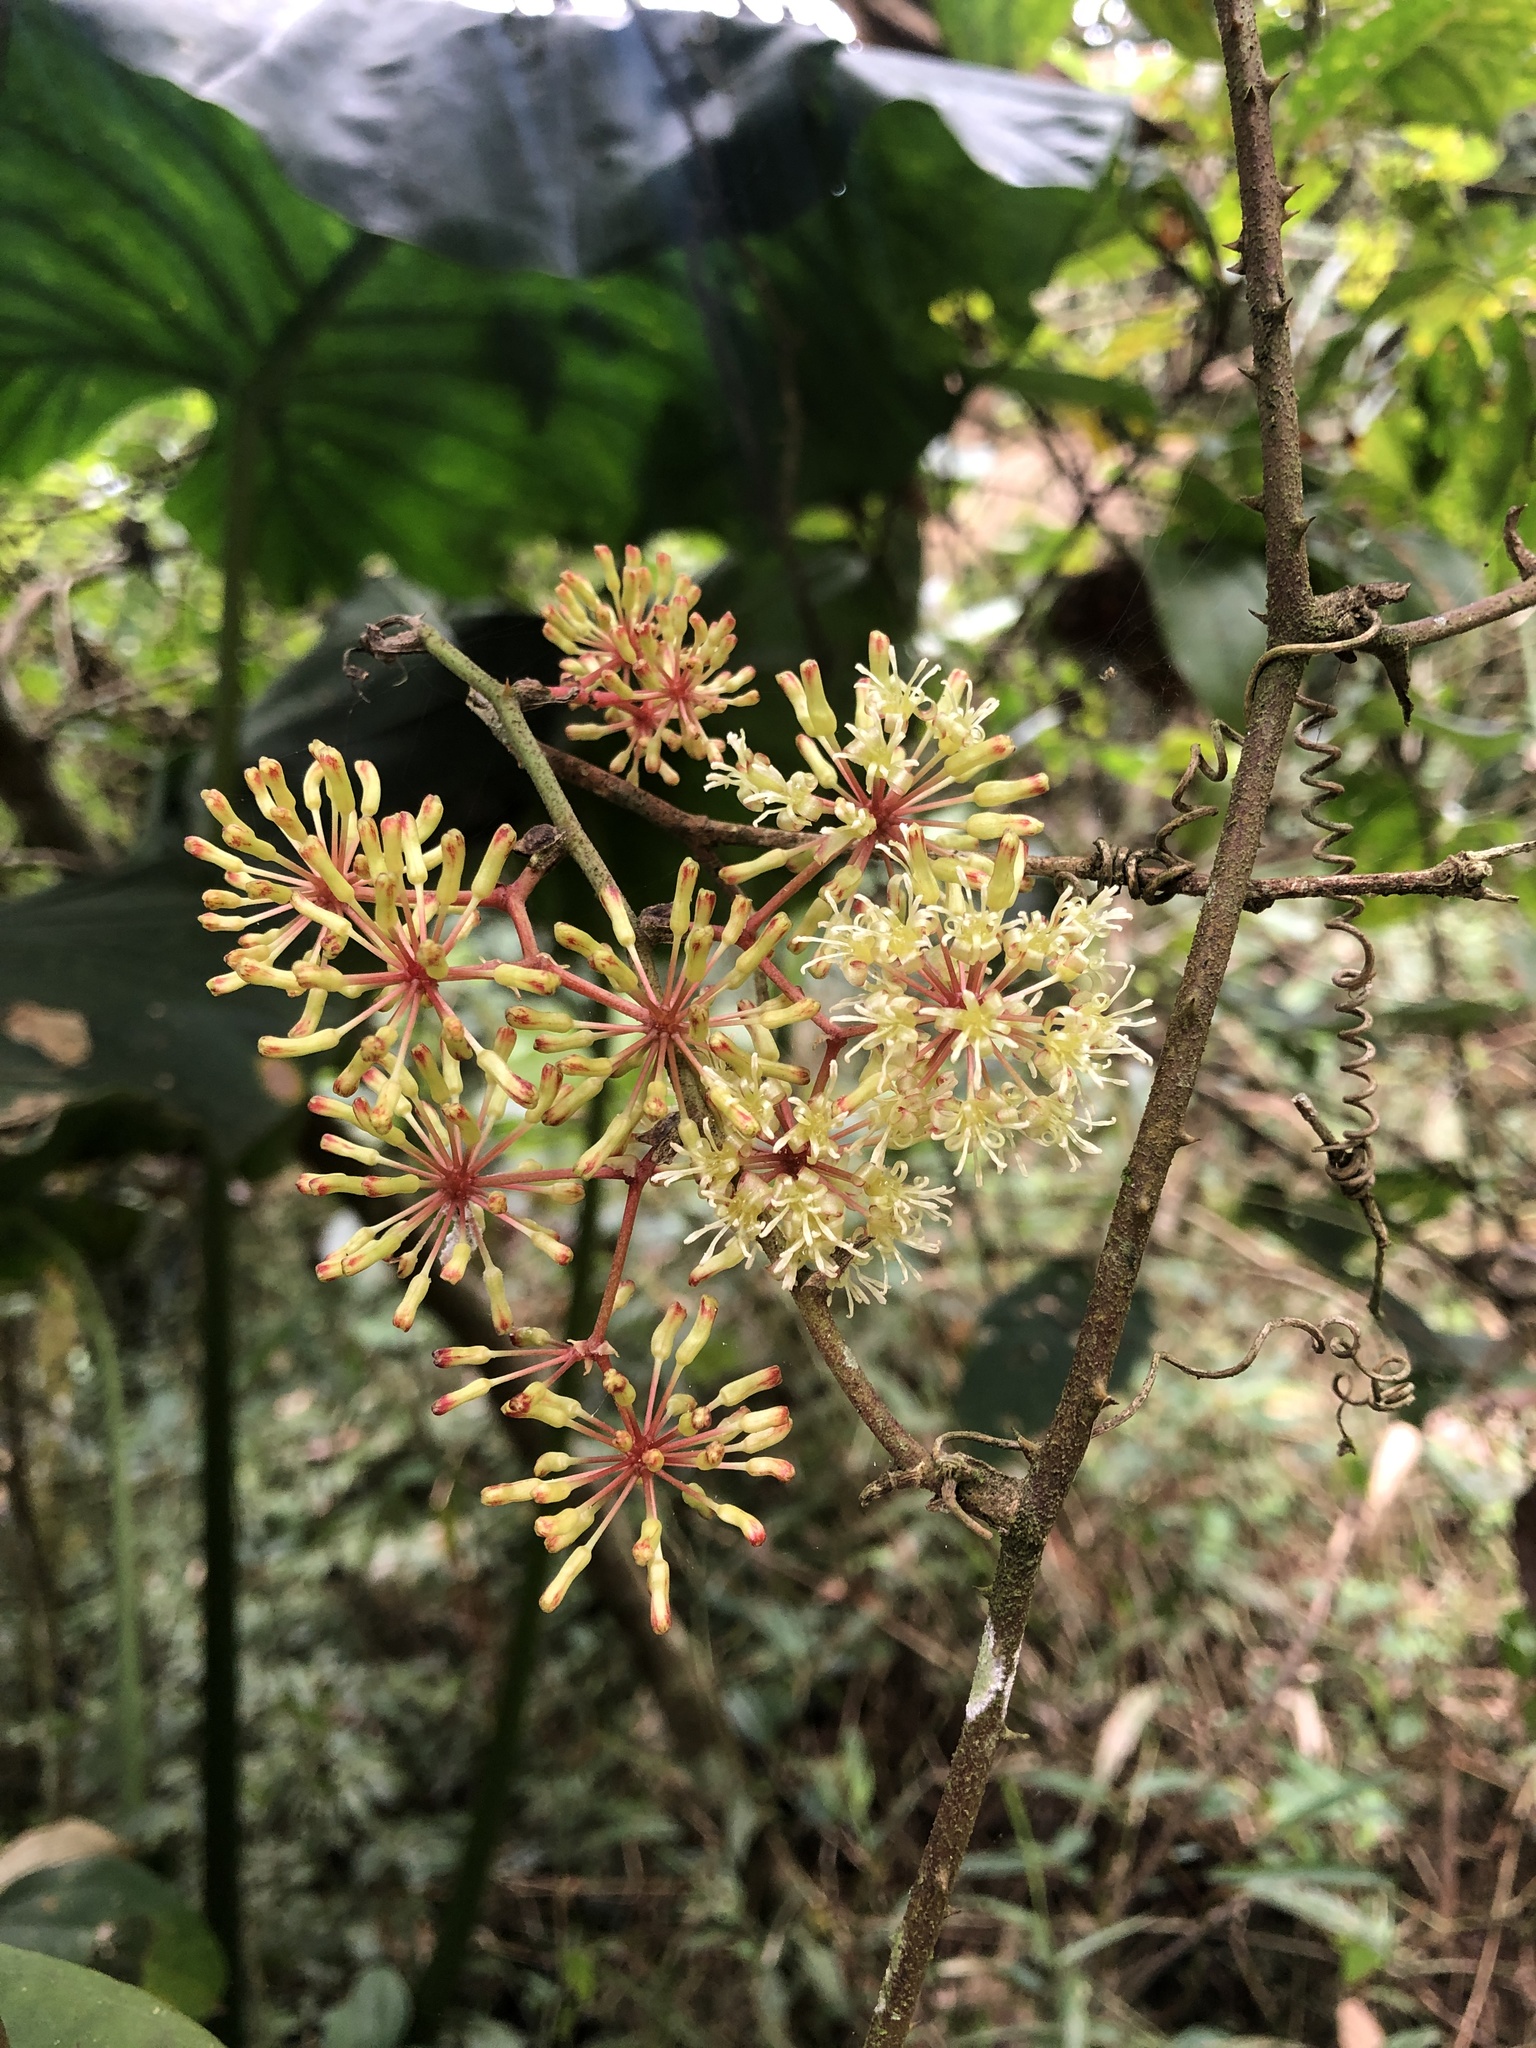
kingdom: Plantae
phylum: Tracheophyta
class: Liliopsida
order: Liliales
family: Smilacaceae
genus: Smilax
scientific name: Smilax aspericaulis
